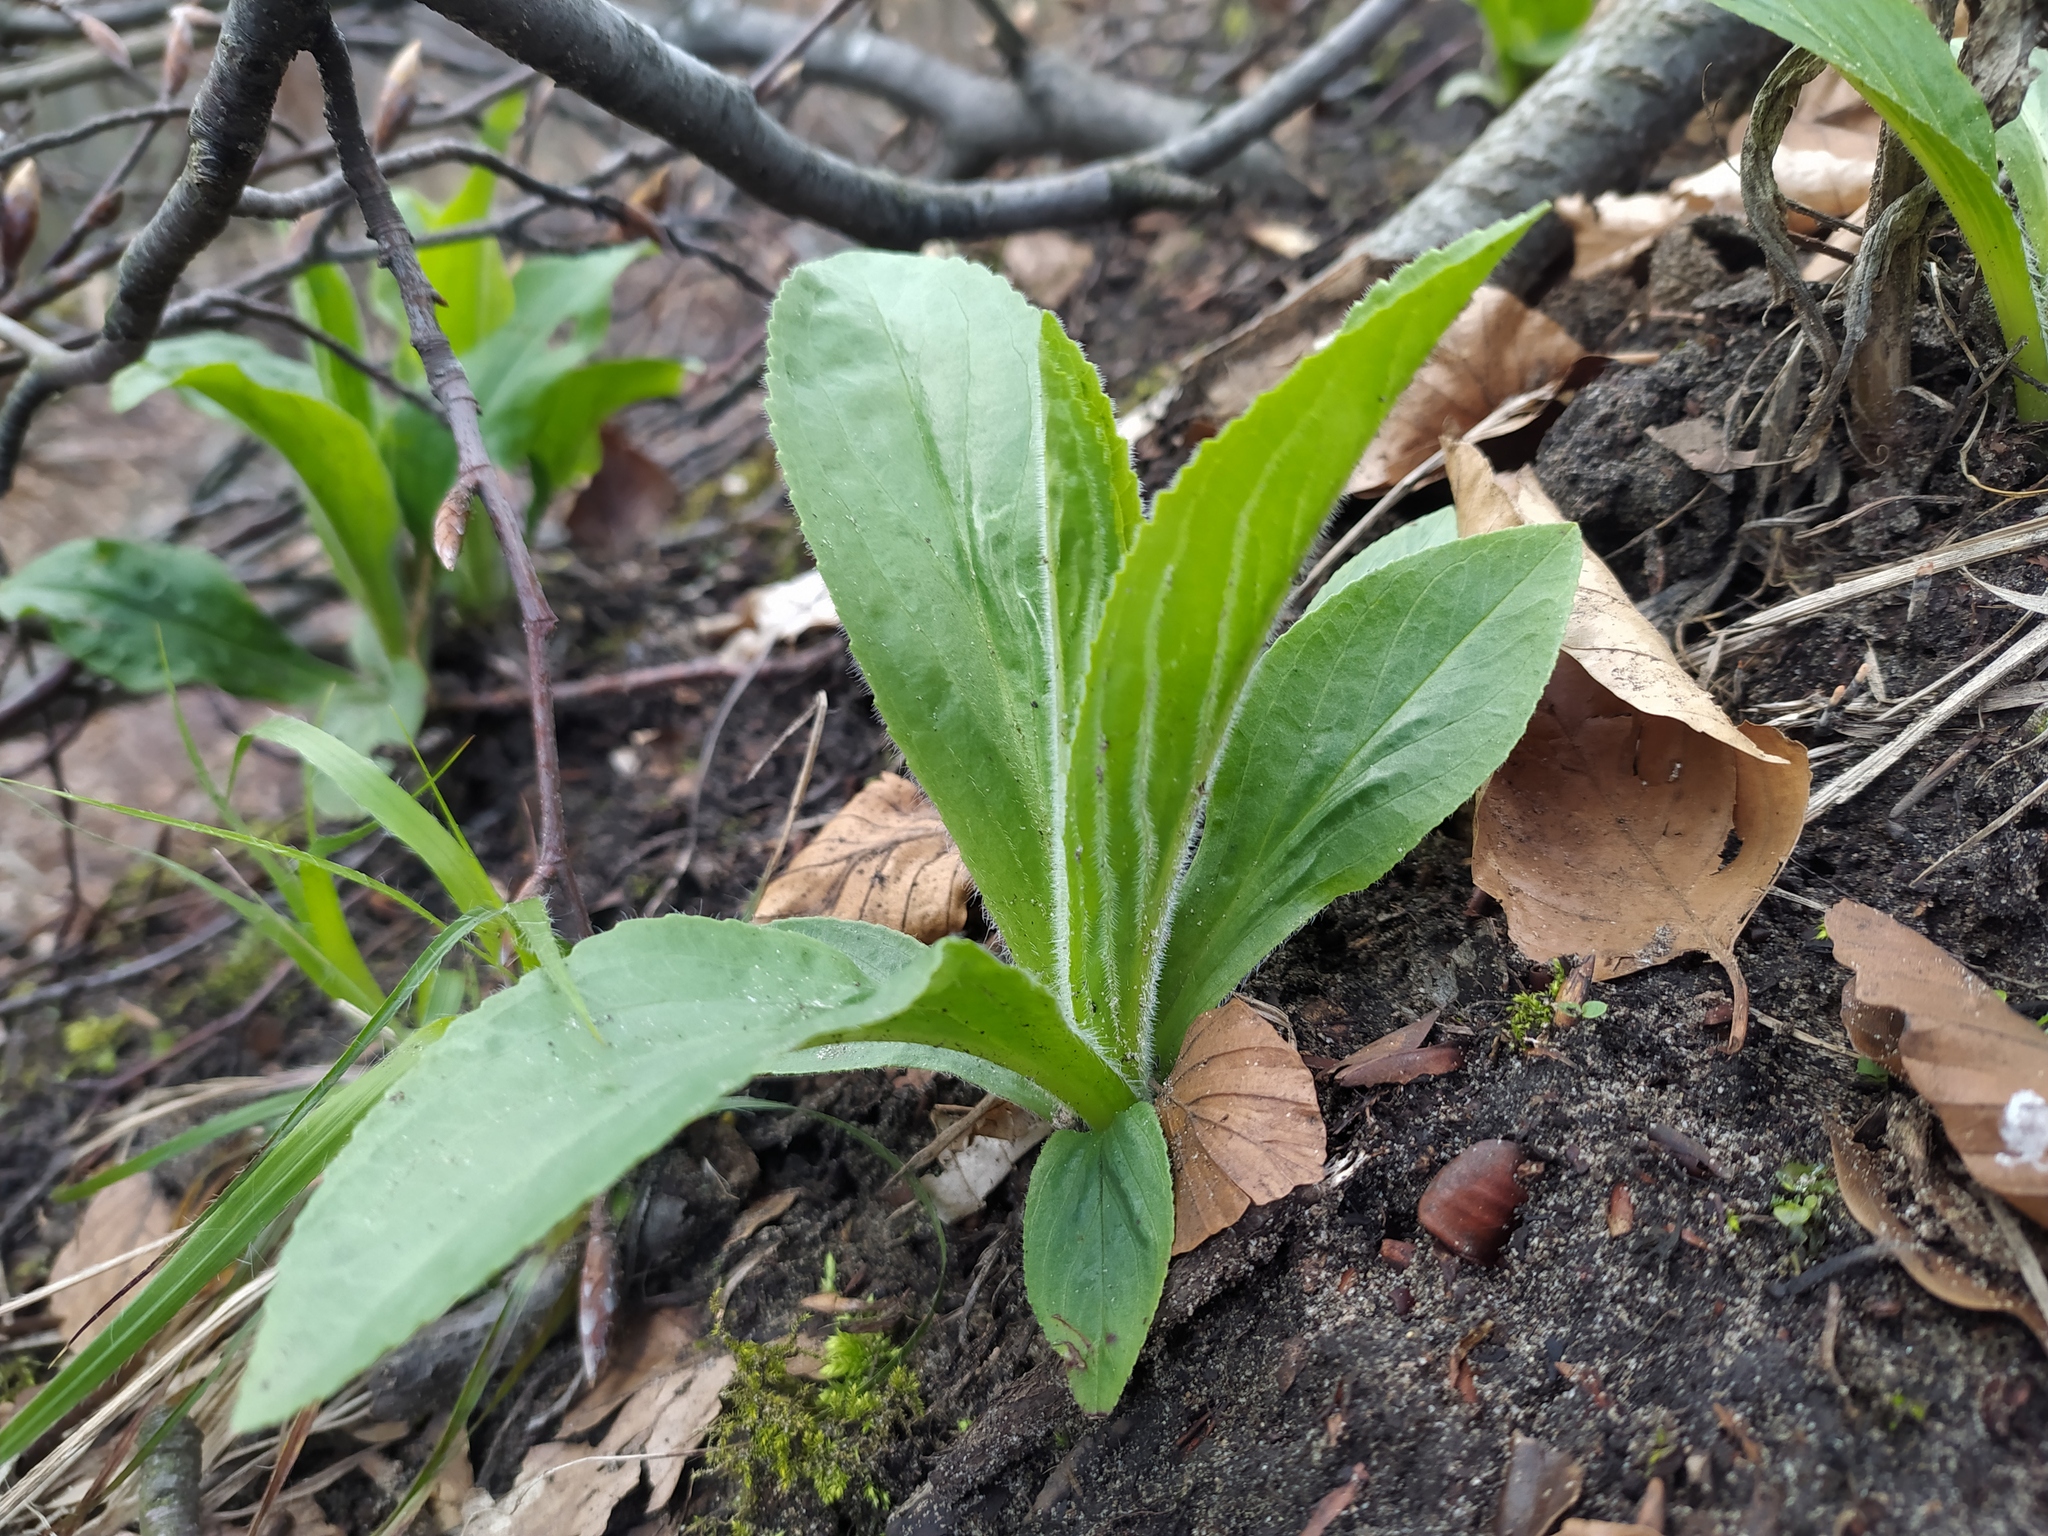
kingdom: Plantae
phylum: Tracheophyta
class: Magnoliopsida
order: Lamiales
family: Plantaginaceae
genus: Digitalis
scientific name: Digitalis grandiflora
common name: Yellow foxglove
